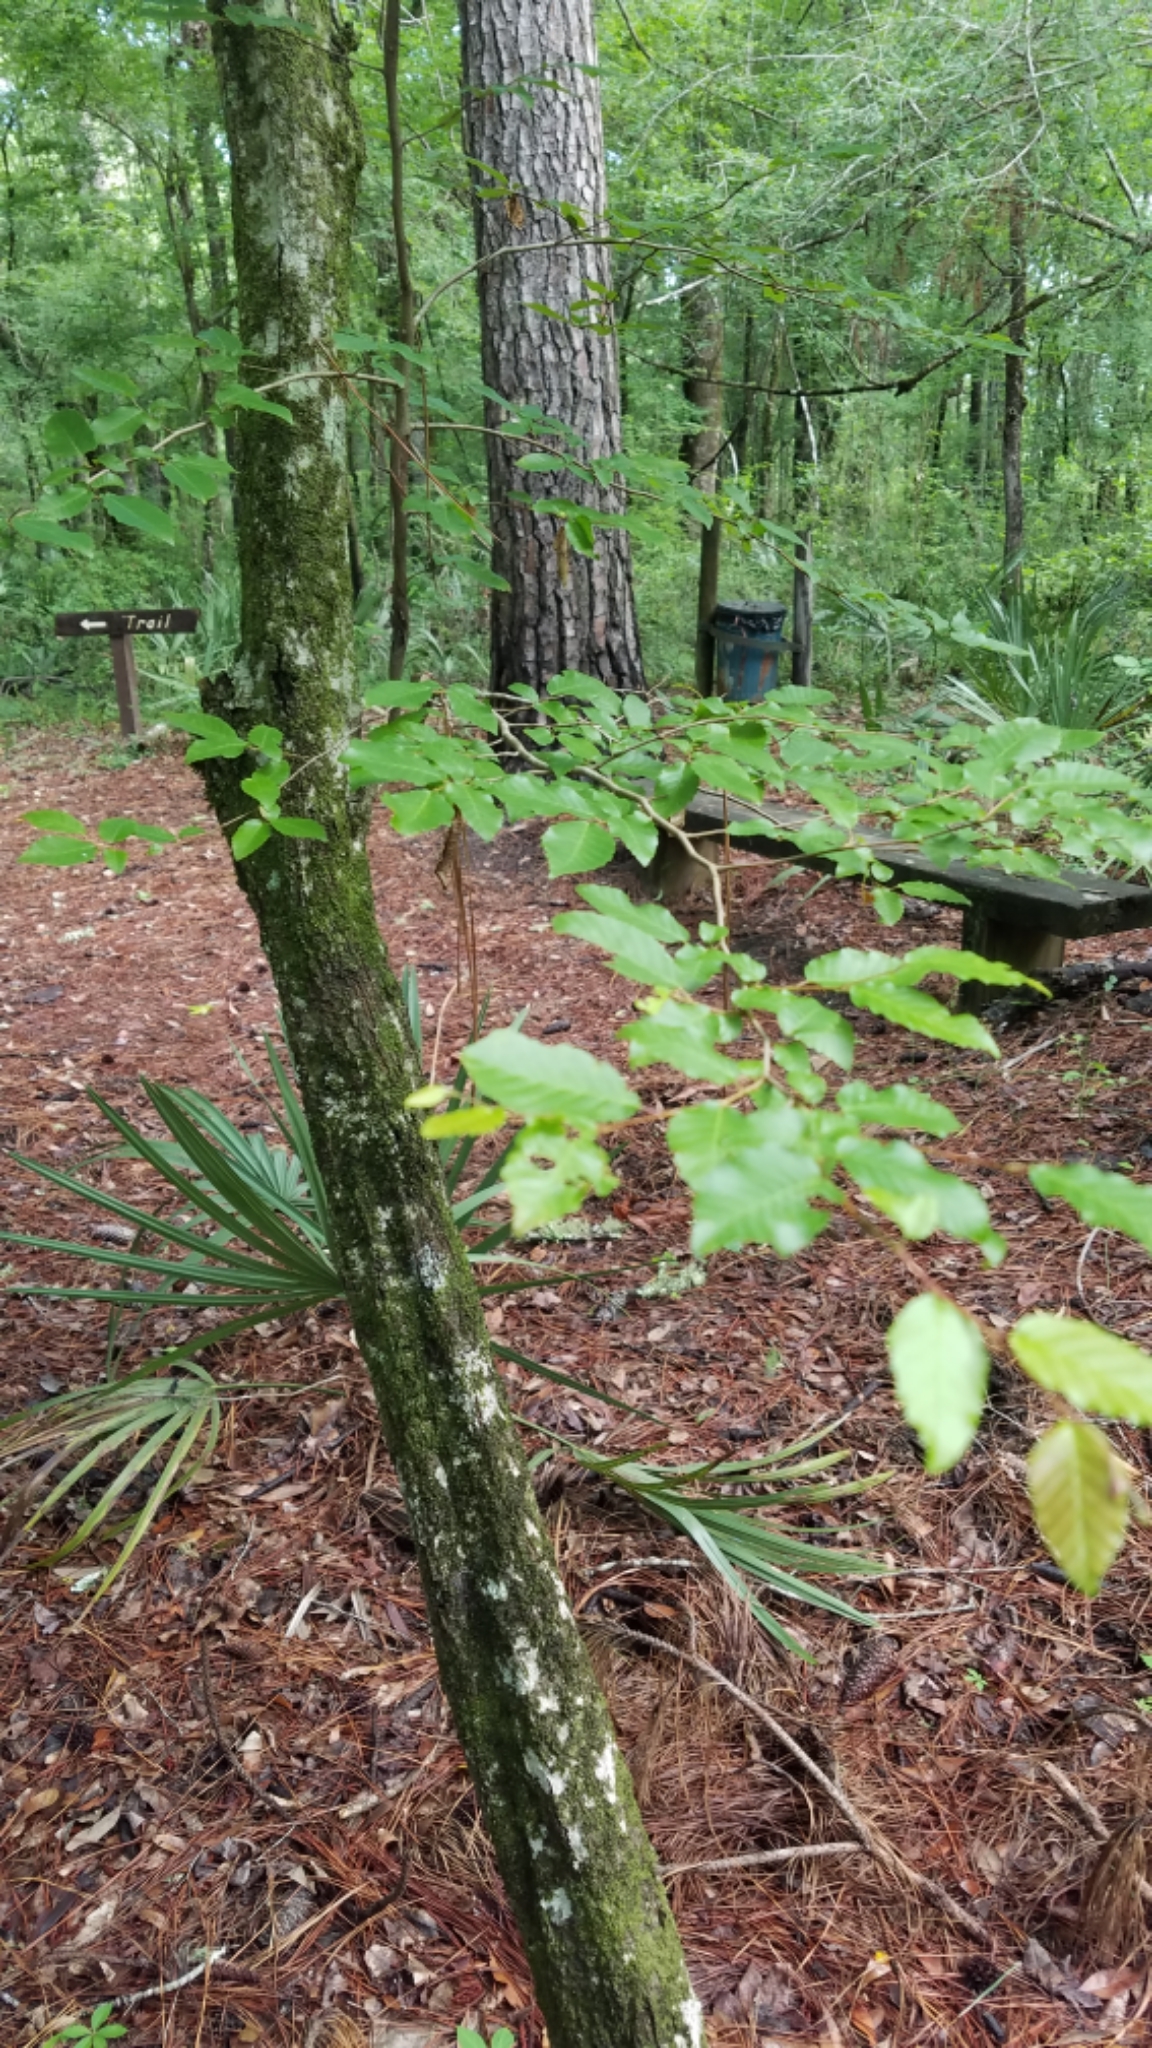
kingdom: Plantae
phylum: Tracheophyta
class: Magnoliopsida
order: Fagales
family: Betulaceae
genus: Carpinus
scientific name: Carpinus caroliniana
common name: American hornbeam
